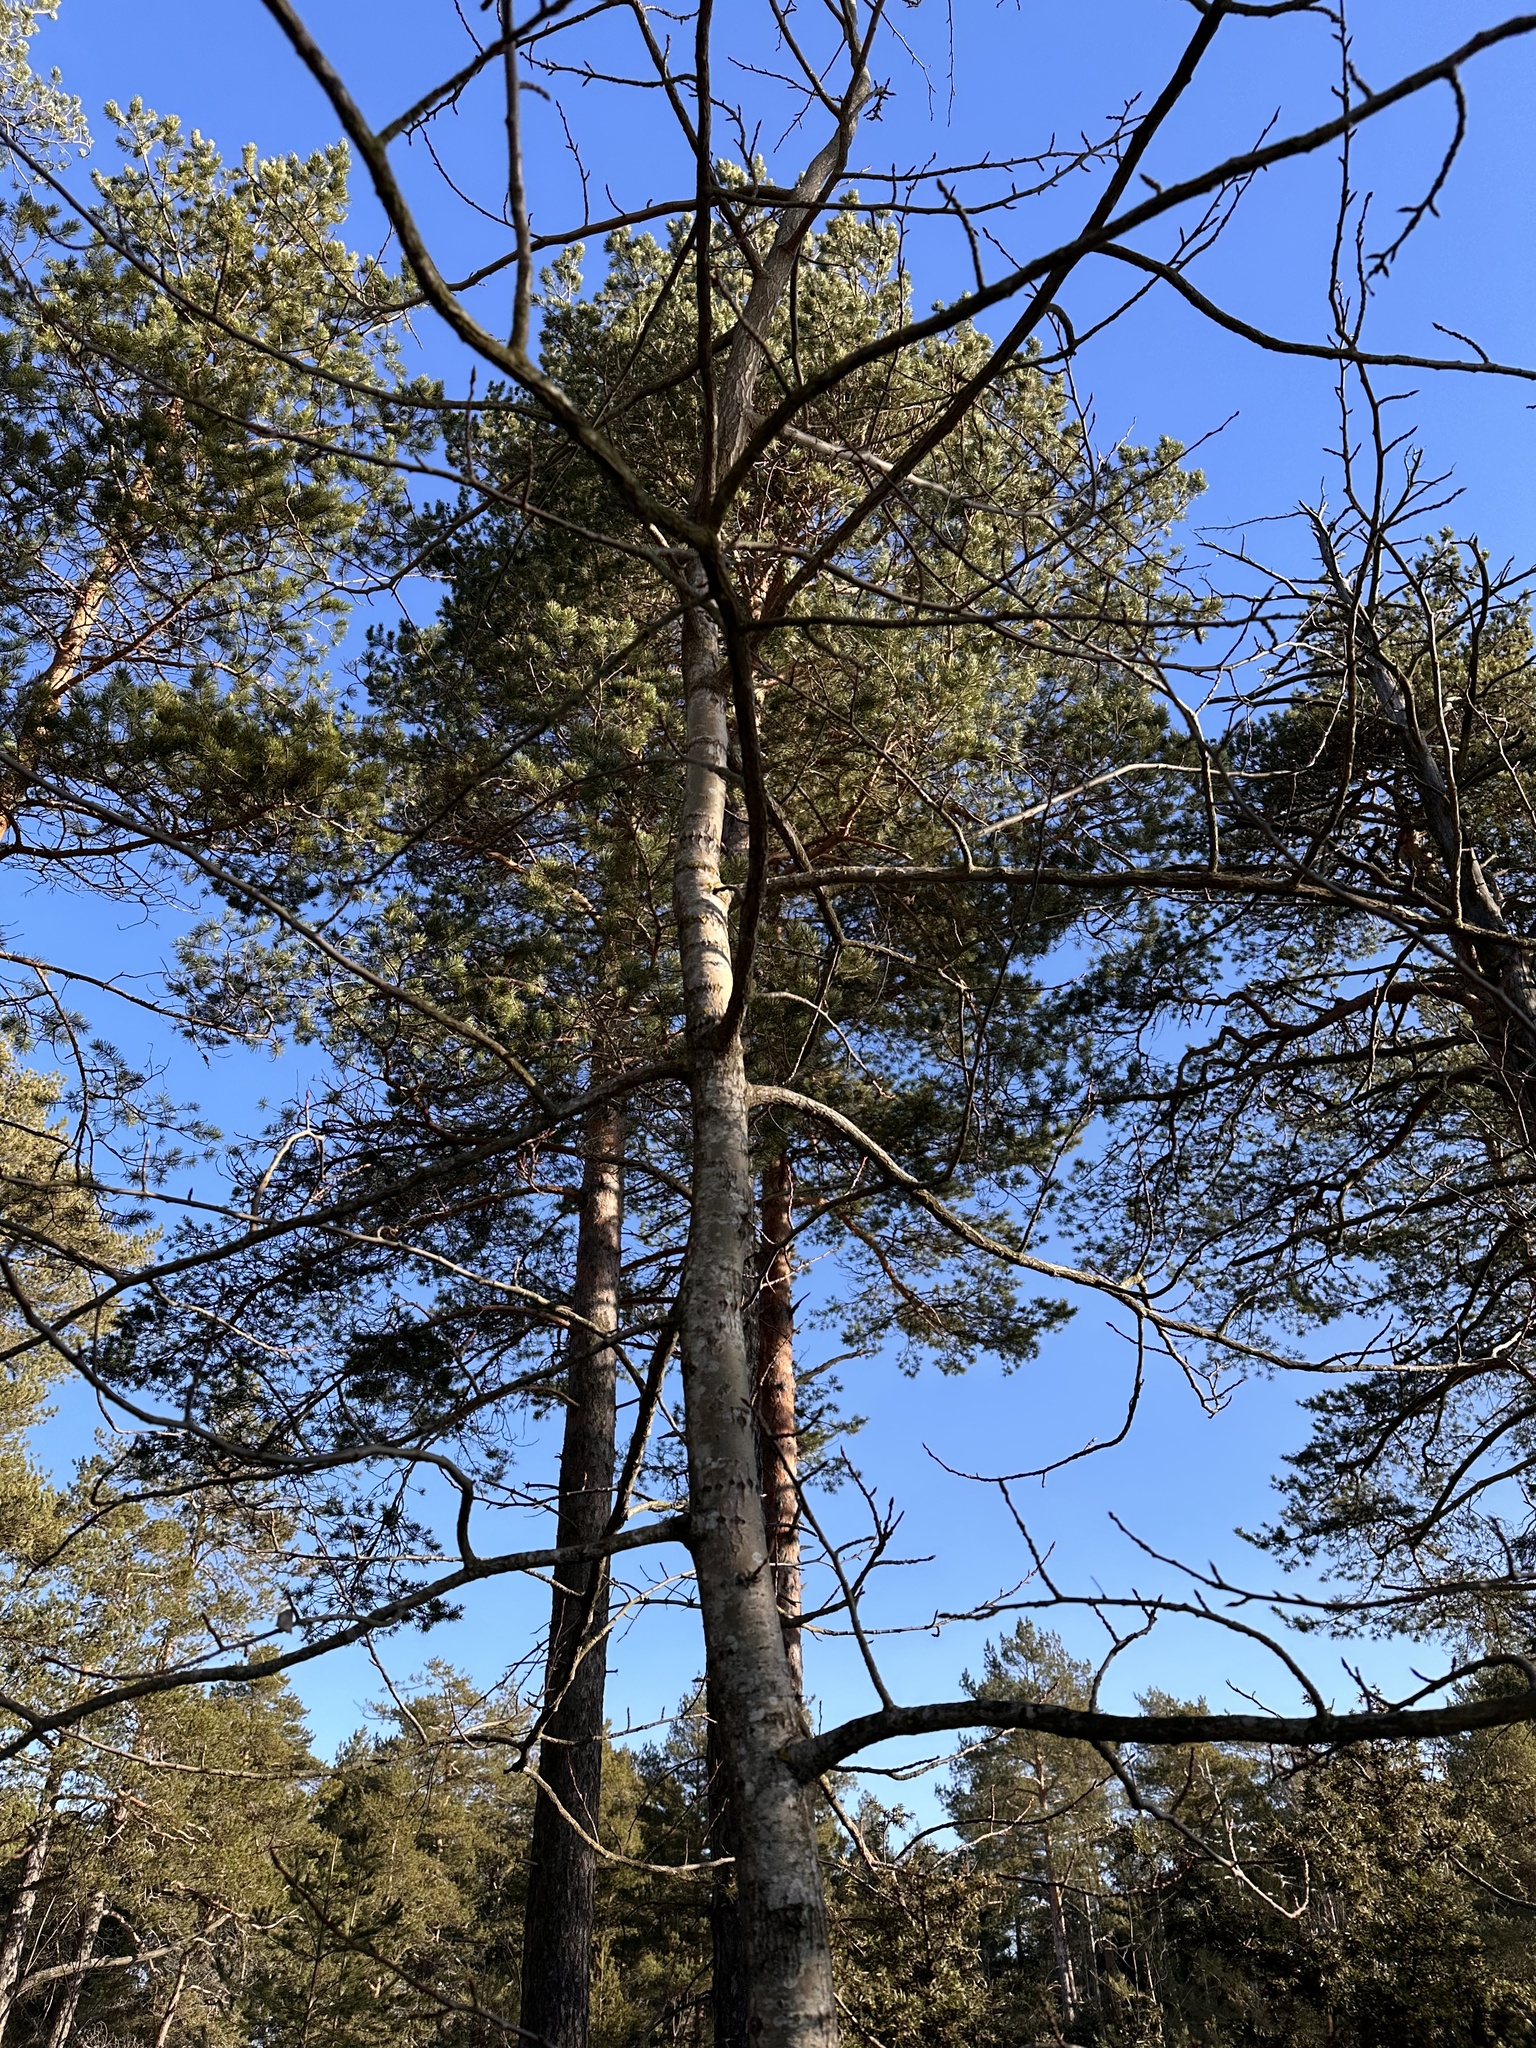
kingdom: Plantae
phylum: Tracheophyta
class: Magnoliopsida
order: Malpighiales
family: Salicaceae
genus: Populus
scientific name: Populus tremula
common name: European aspen
